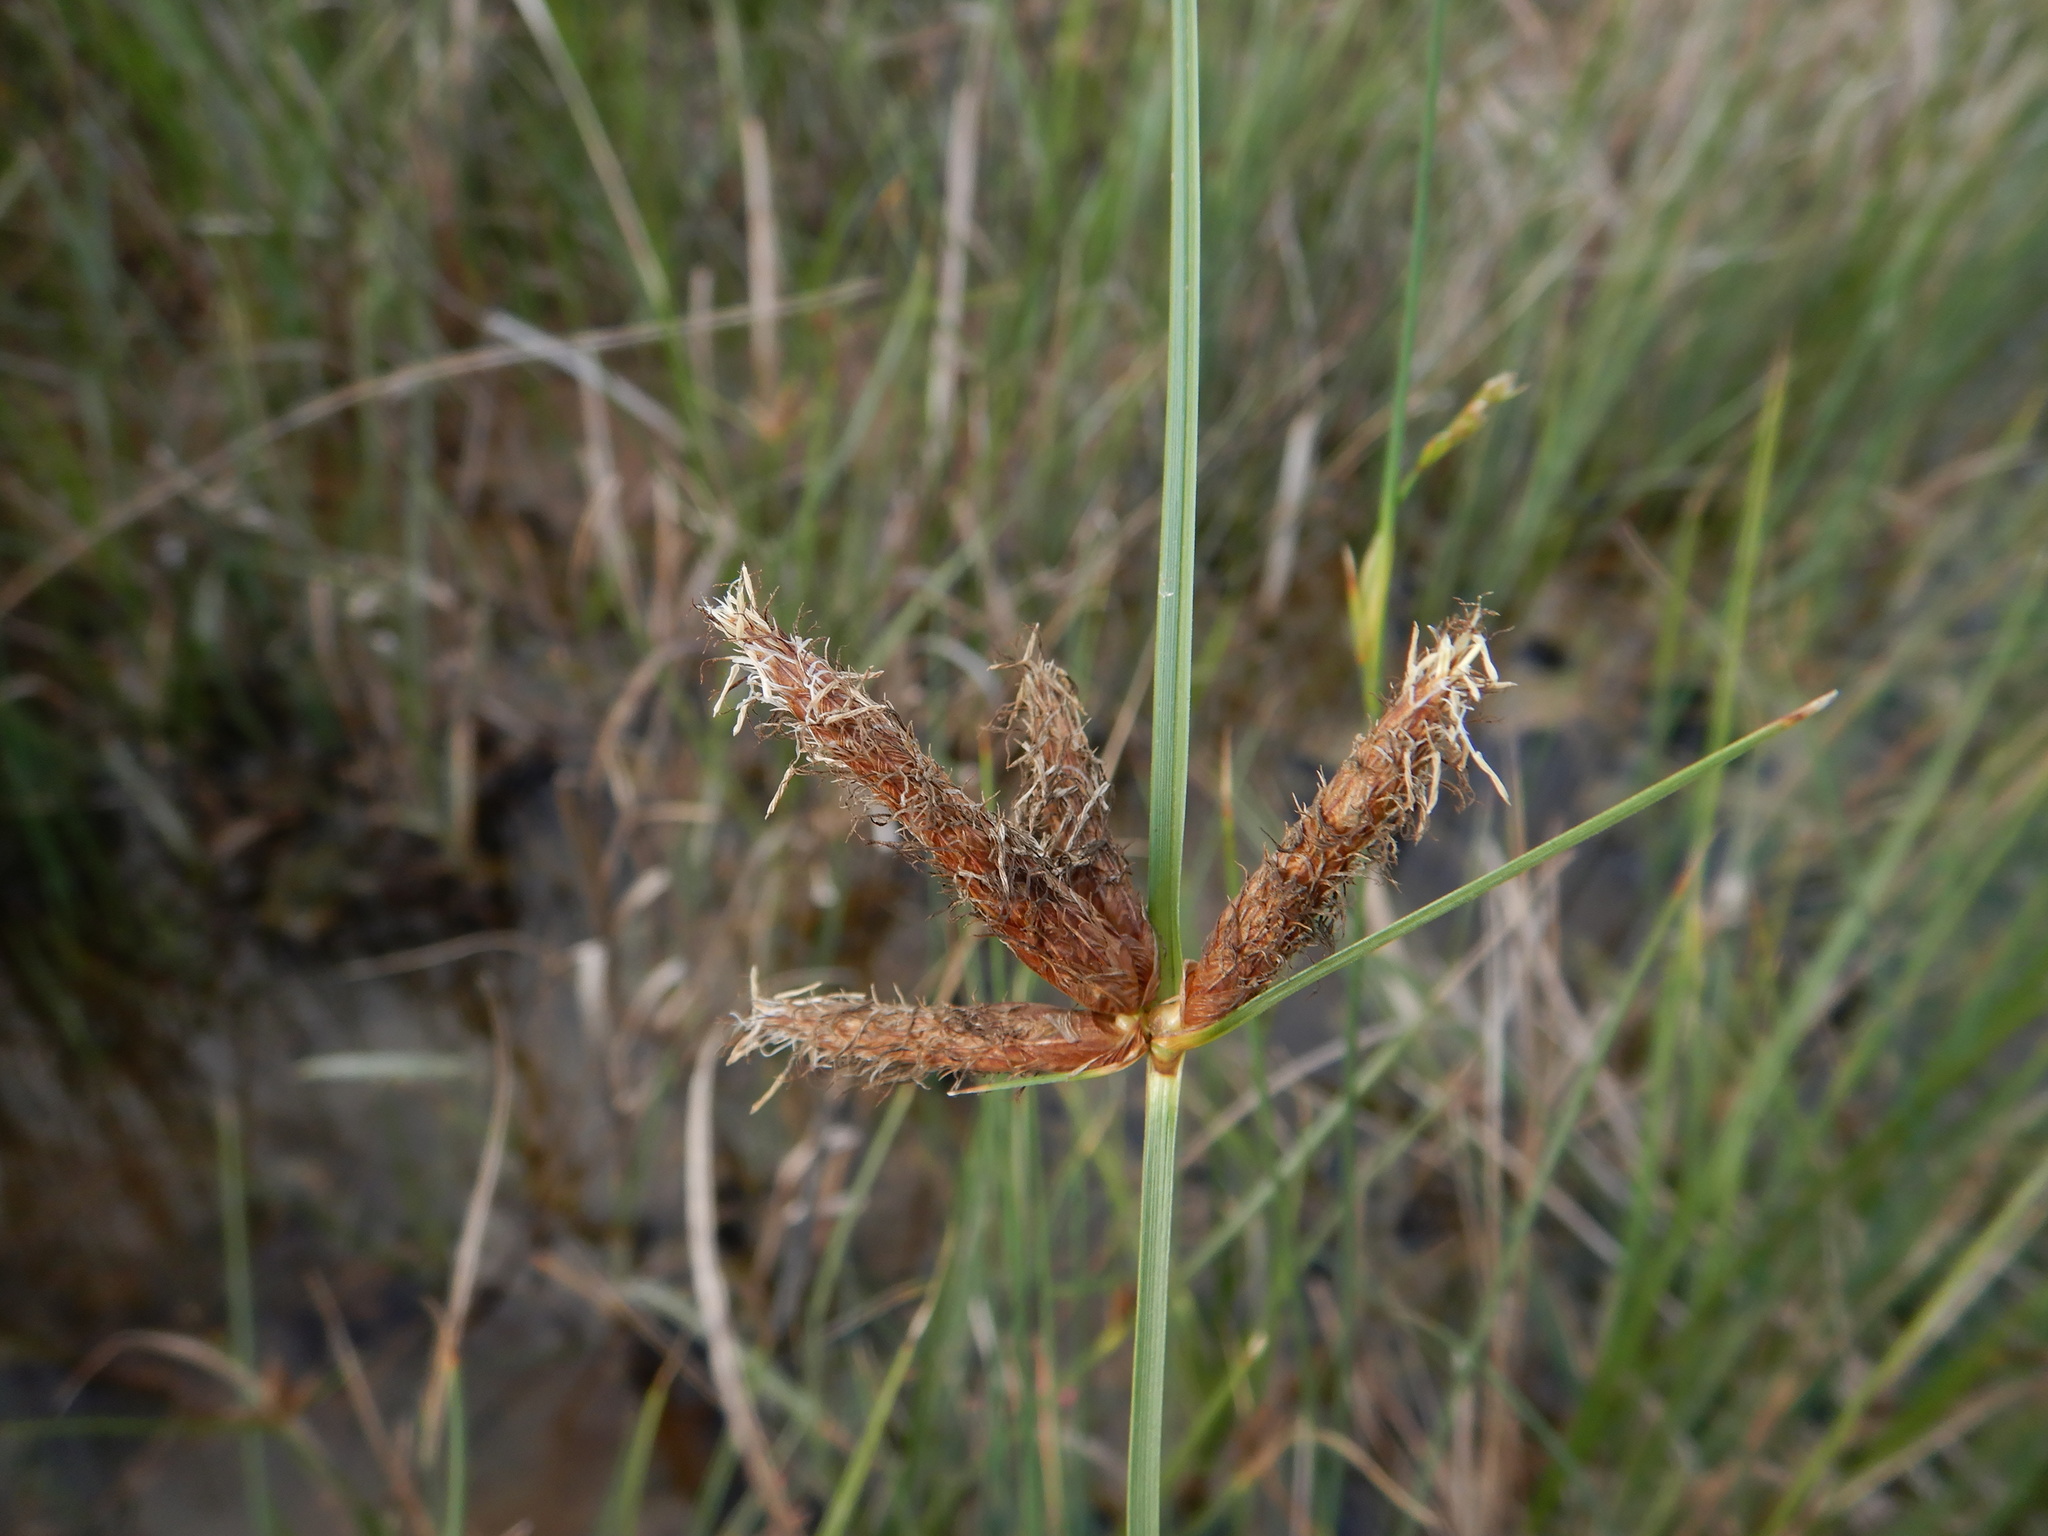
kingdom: Plantae
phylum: Tracheophyta
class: Liliopsida
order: Poales
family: Cyperaceae
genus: Bolboschoenus
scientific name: Bolboschoenus maritimus
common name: Sea club-rush
